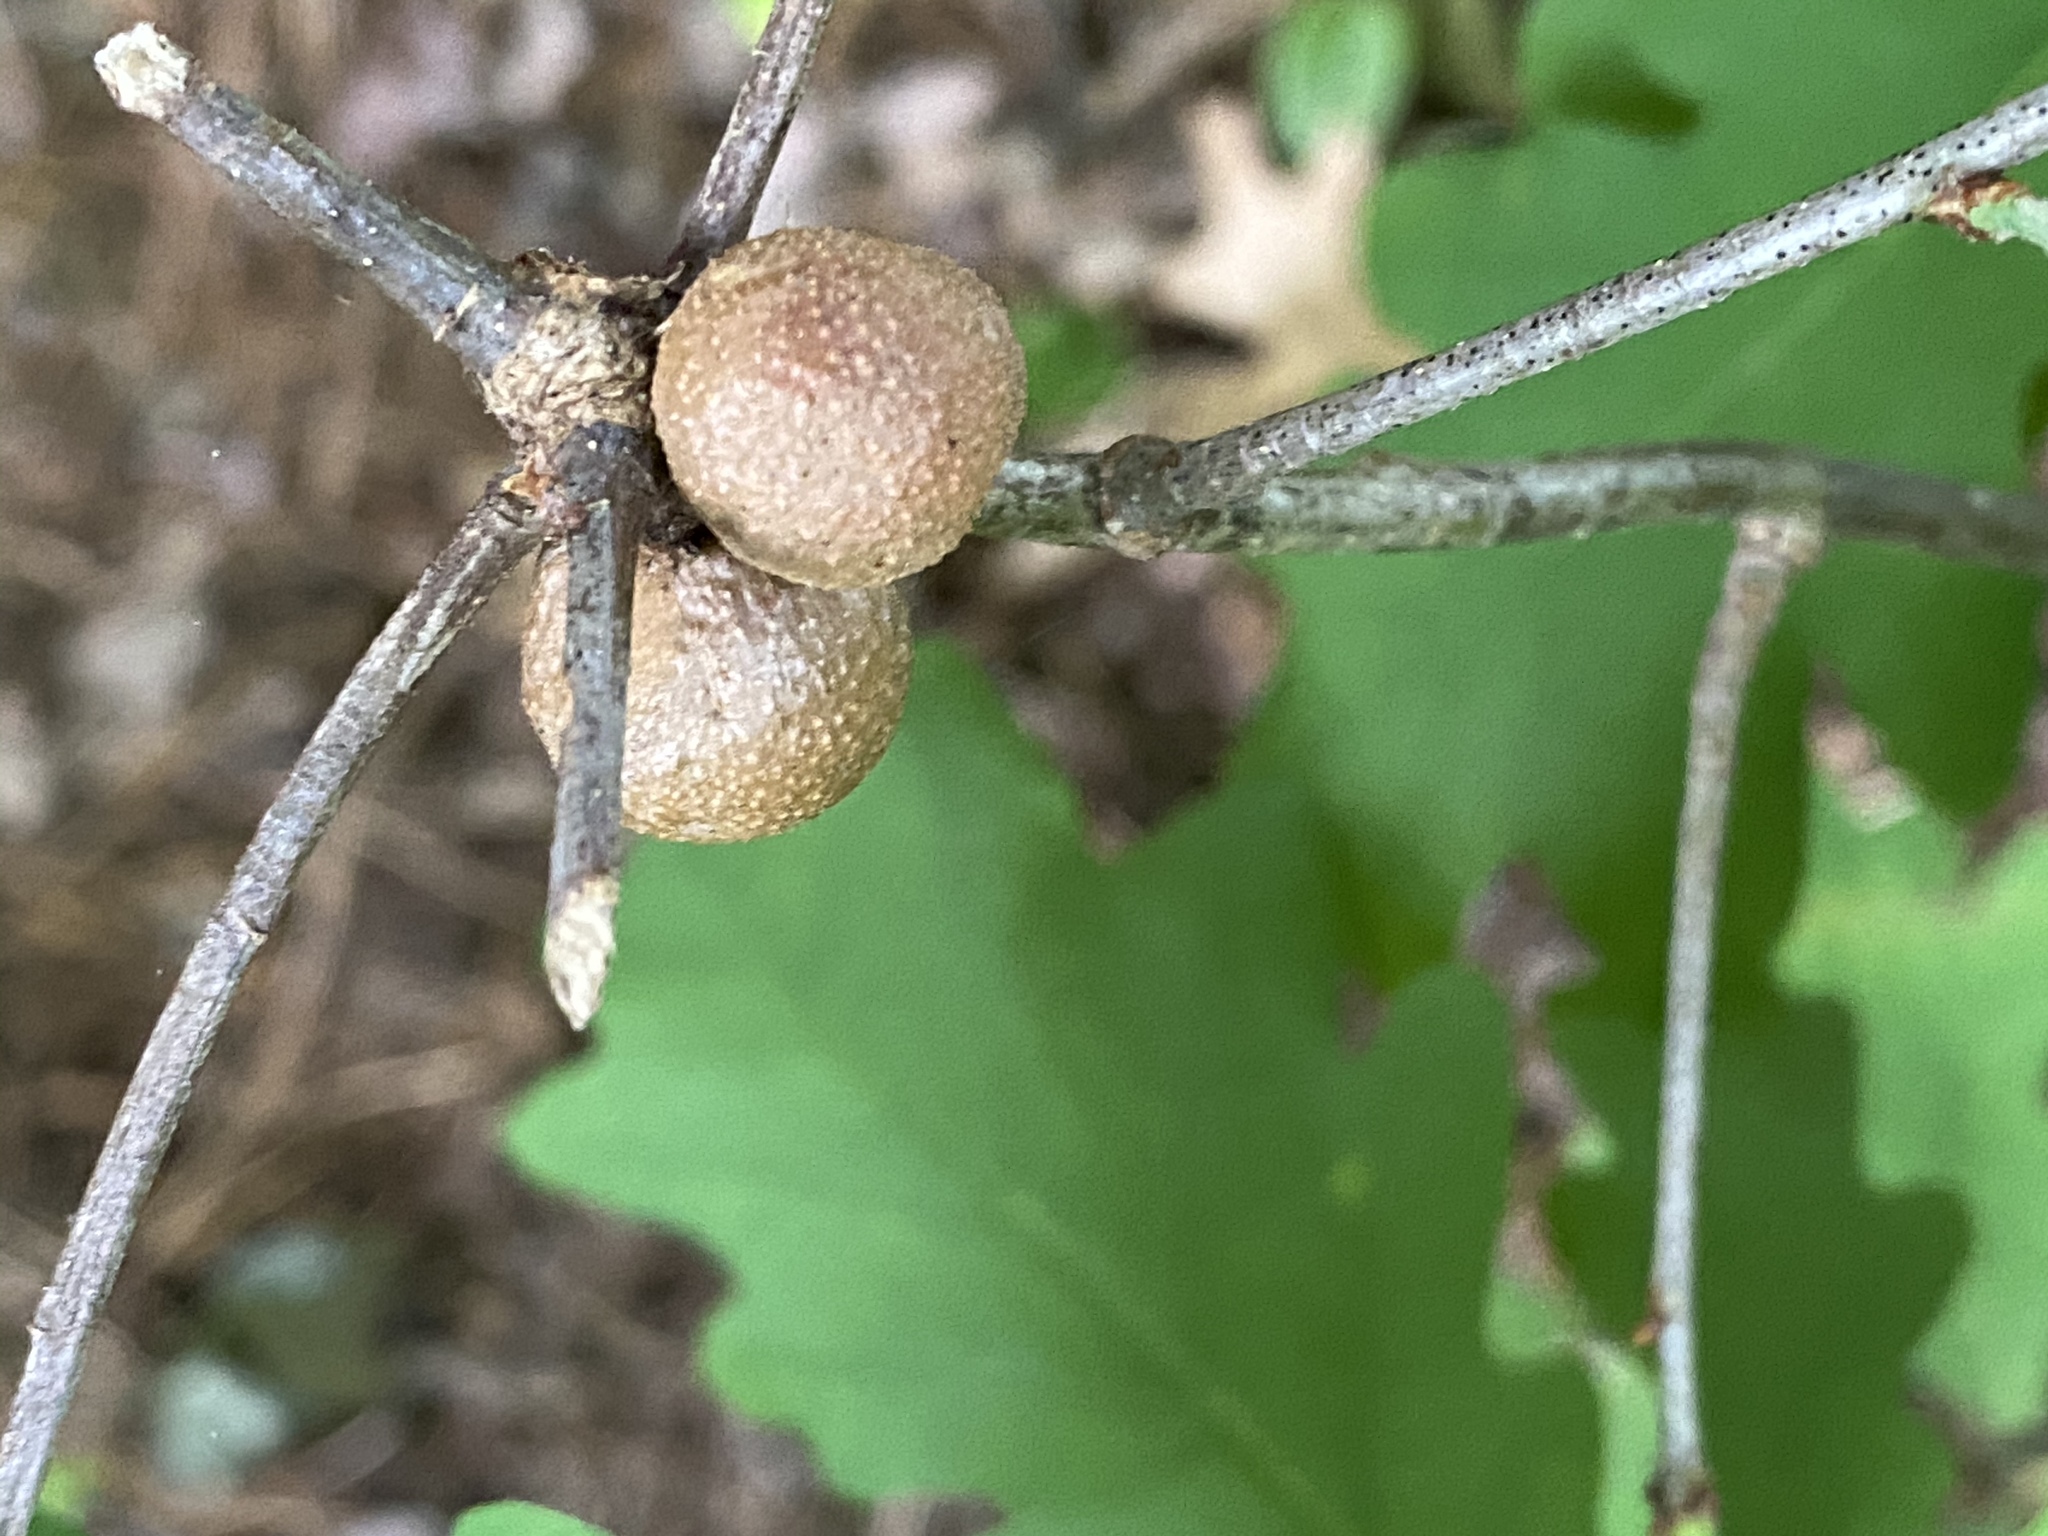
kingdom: Animalia
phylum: Arthropoda
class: Insecta
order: Hymenoptera
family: Cynipidae
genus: Disholcaspis
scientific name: Disholcaspis quercusglobulus
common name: Round bullet gall wasp
